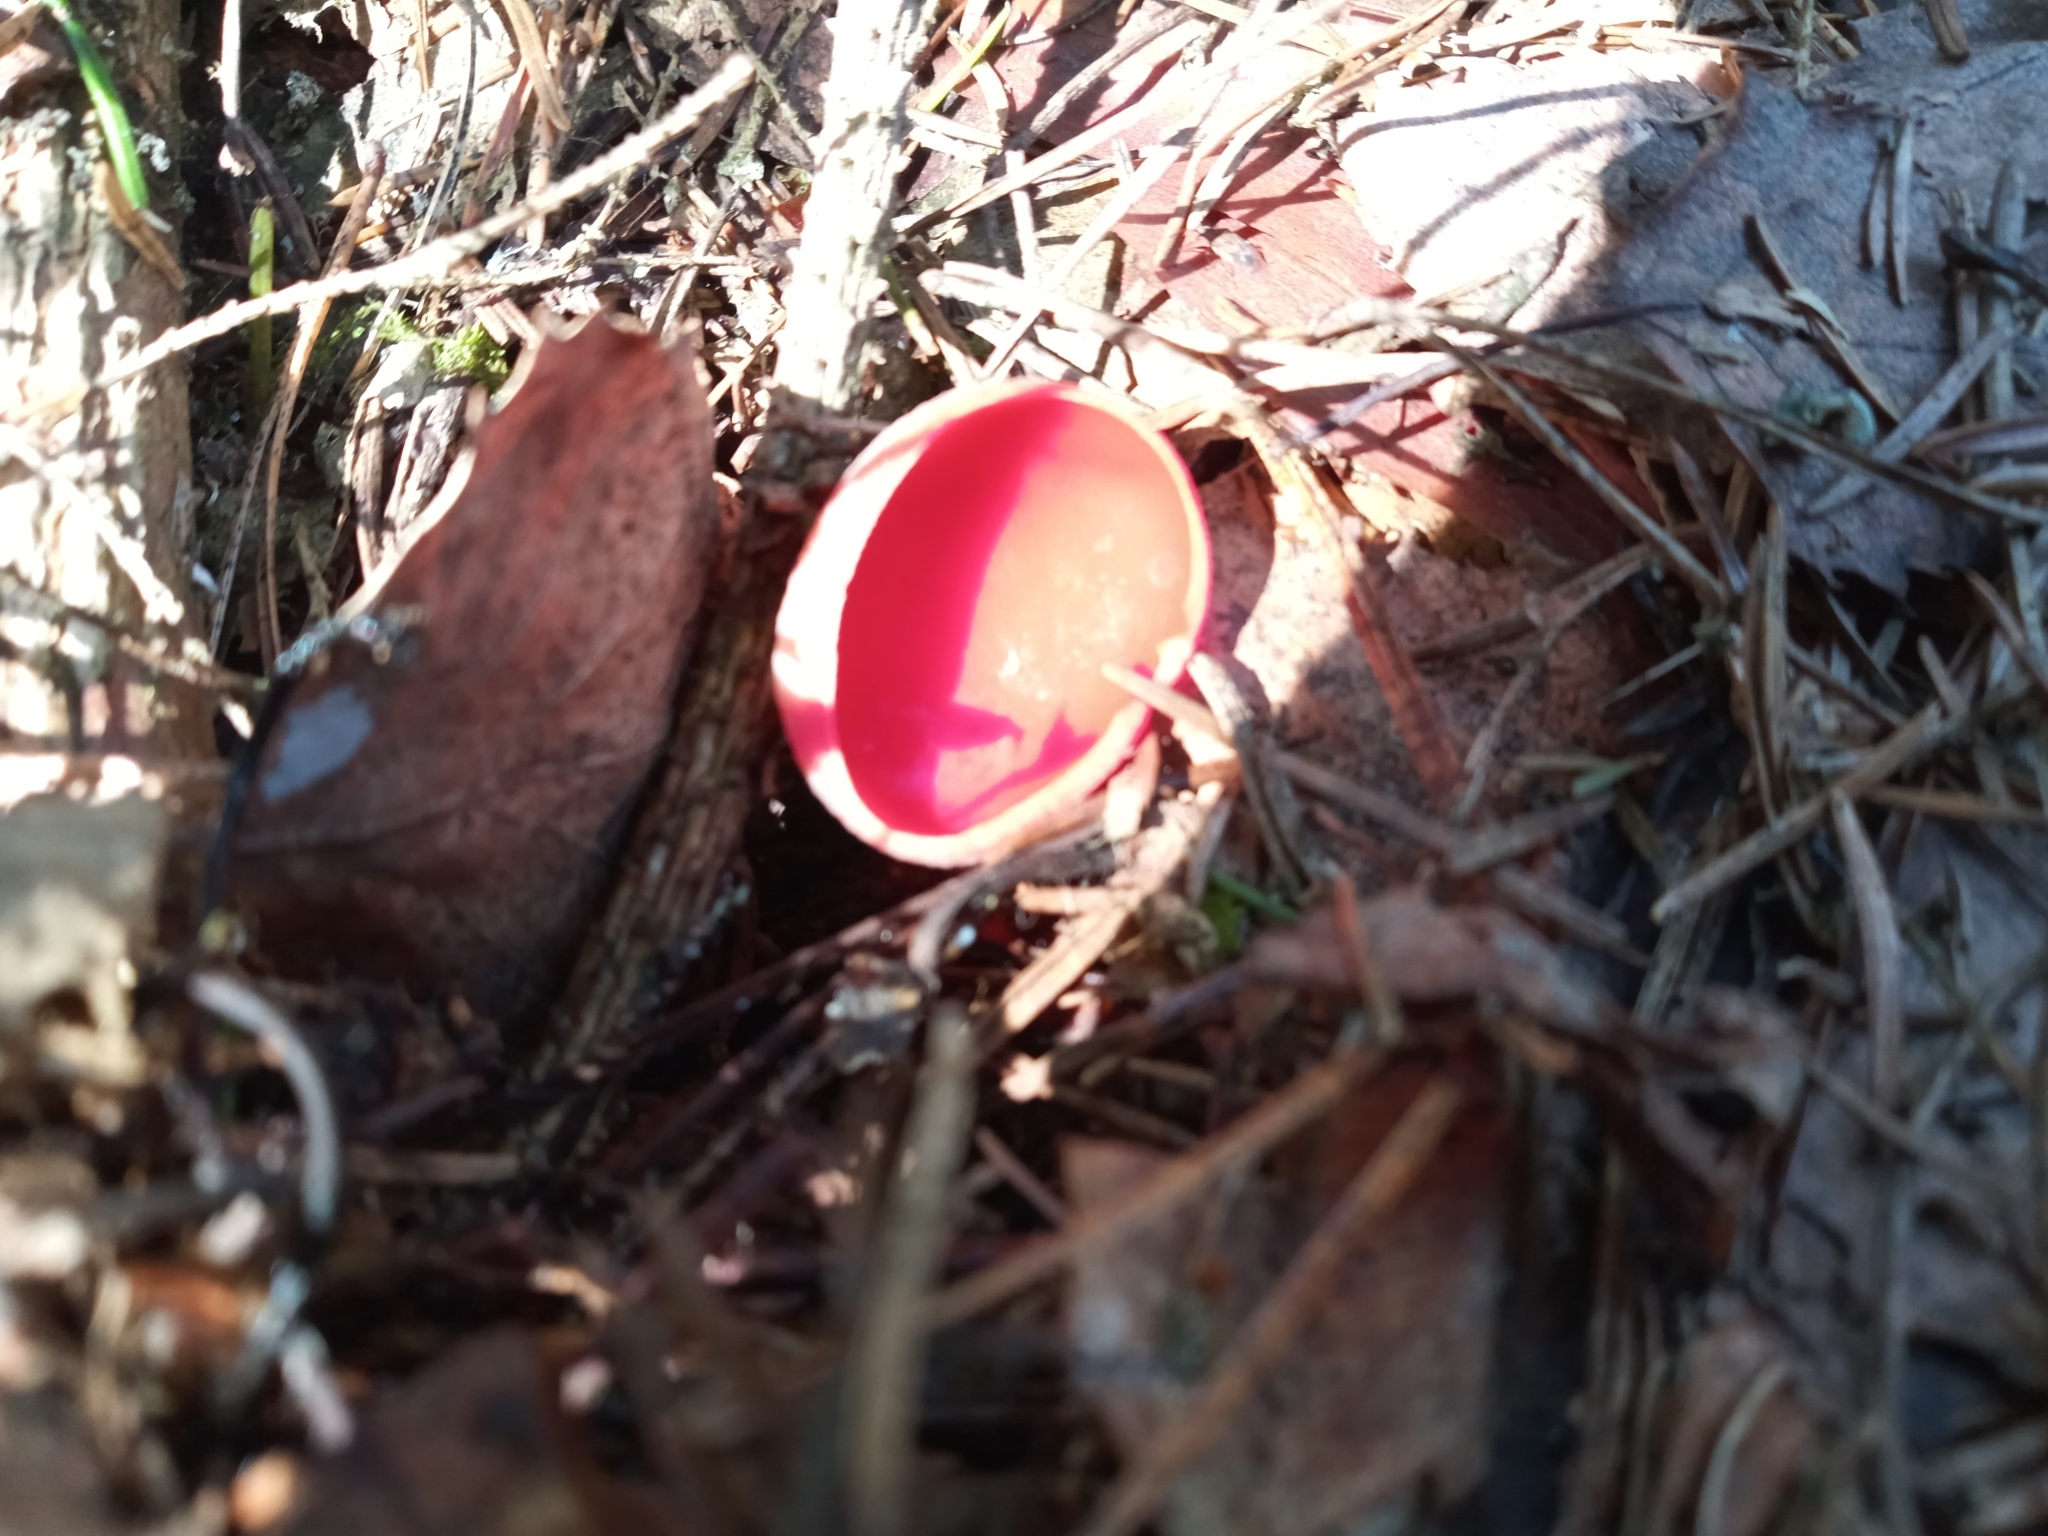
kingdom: Fungi
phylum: Ascomycota
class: Pezizomycetes
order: Pezizales
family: Sarcoscyphaceae
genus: Sarcoscypha
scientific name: Sarcoscypha austriaca
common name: Scarlet elfcup
